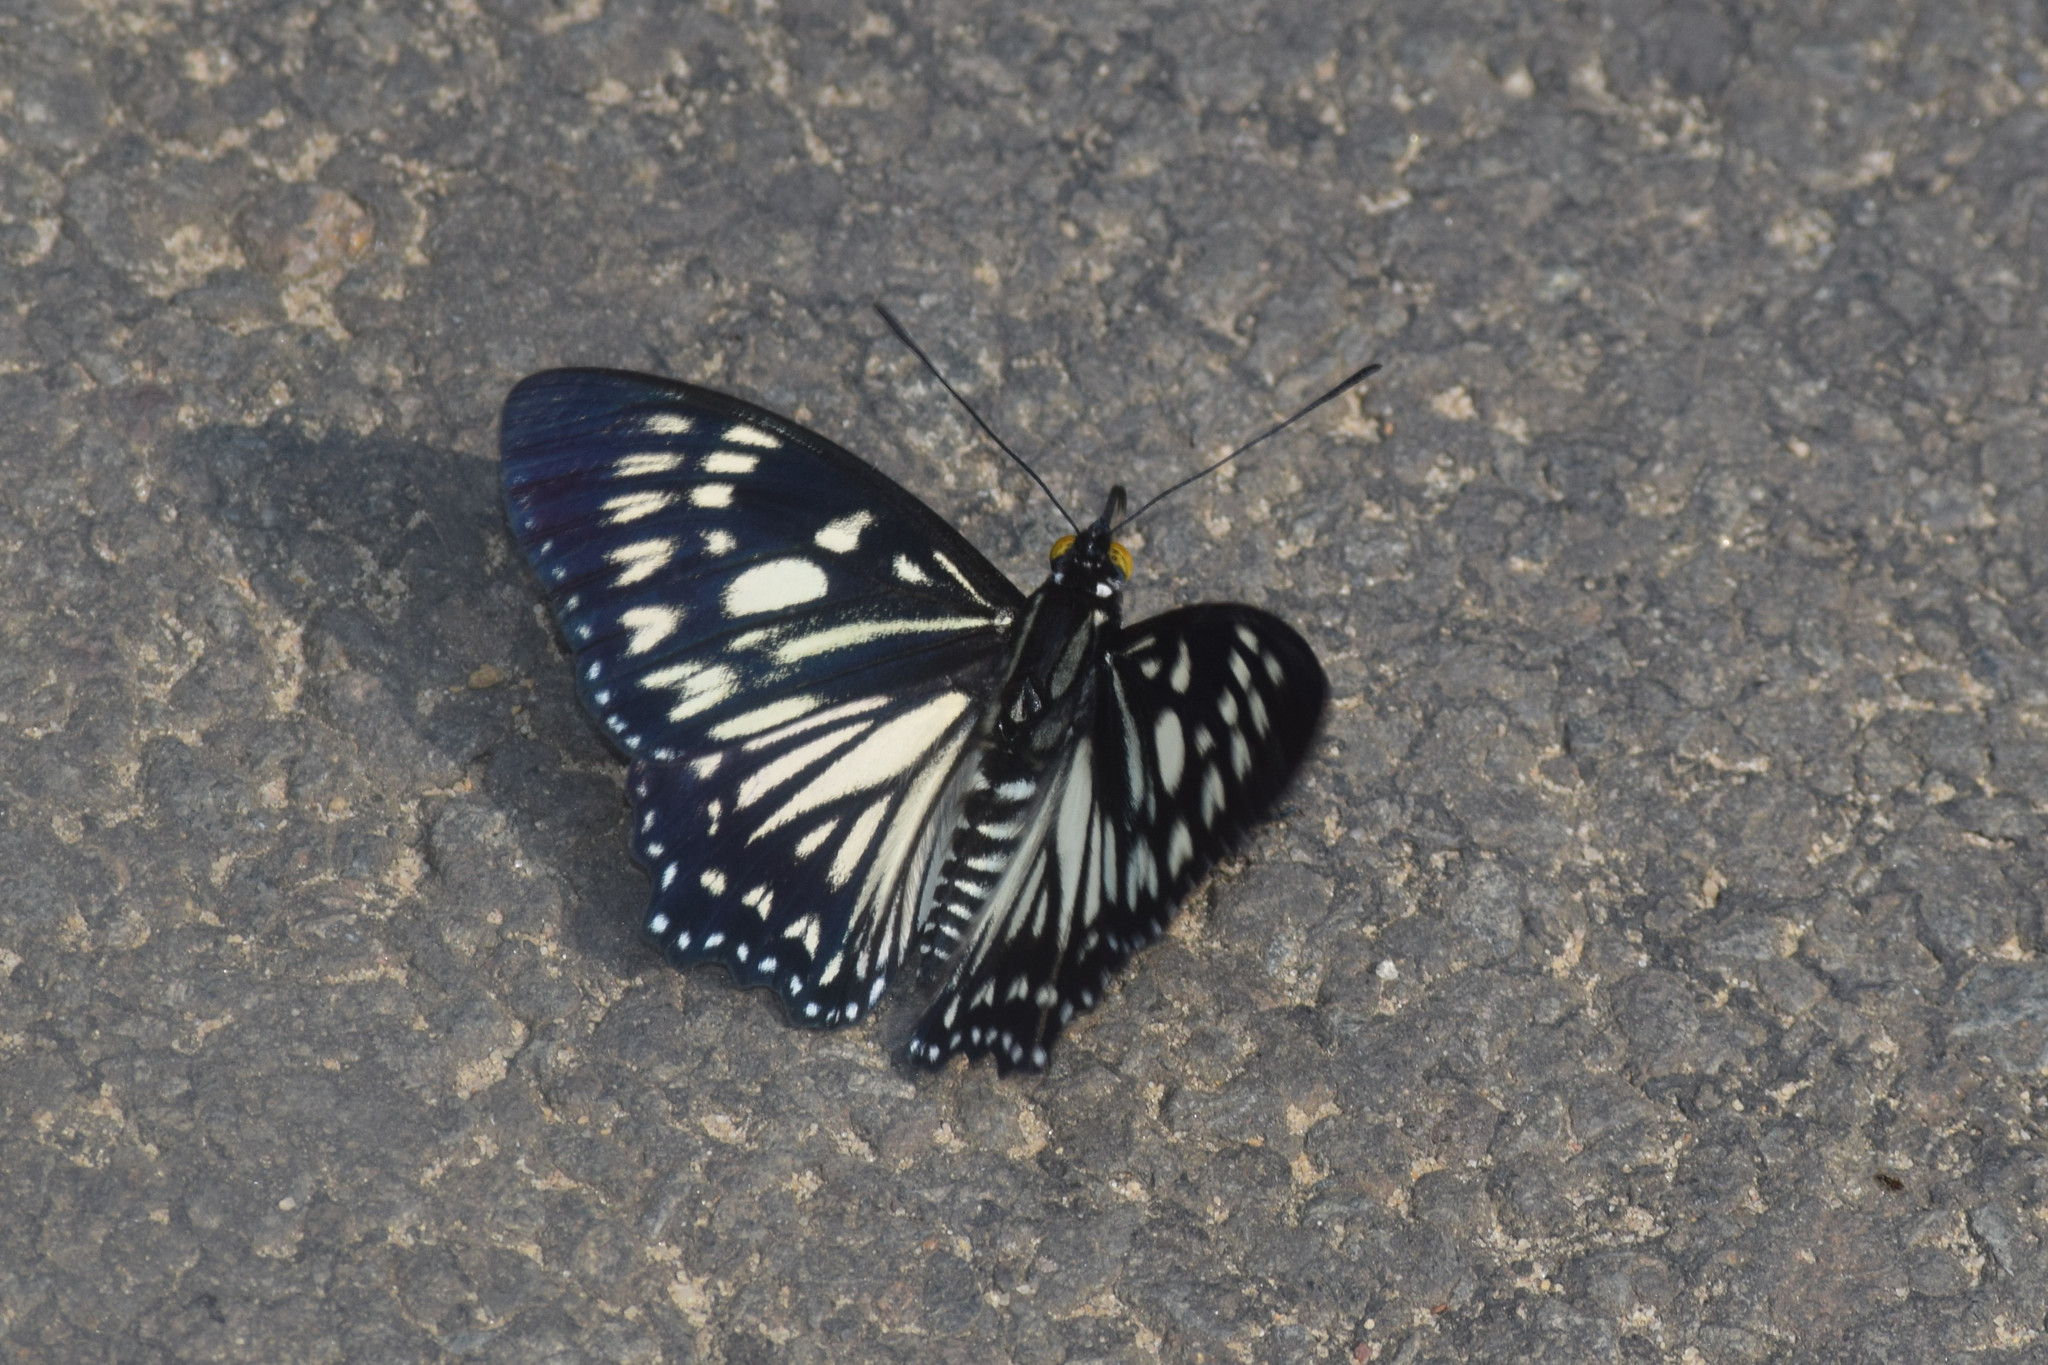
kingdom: Animalia
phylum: Arthropoda
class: Insecta
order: Lepidoptera
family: Nymphalidae
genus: Euripus
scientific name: Euripus nyctelius
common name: Courtesan
